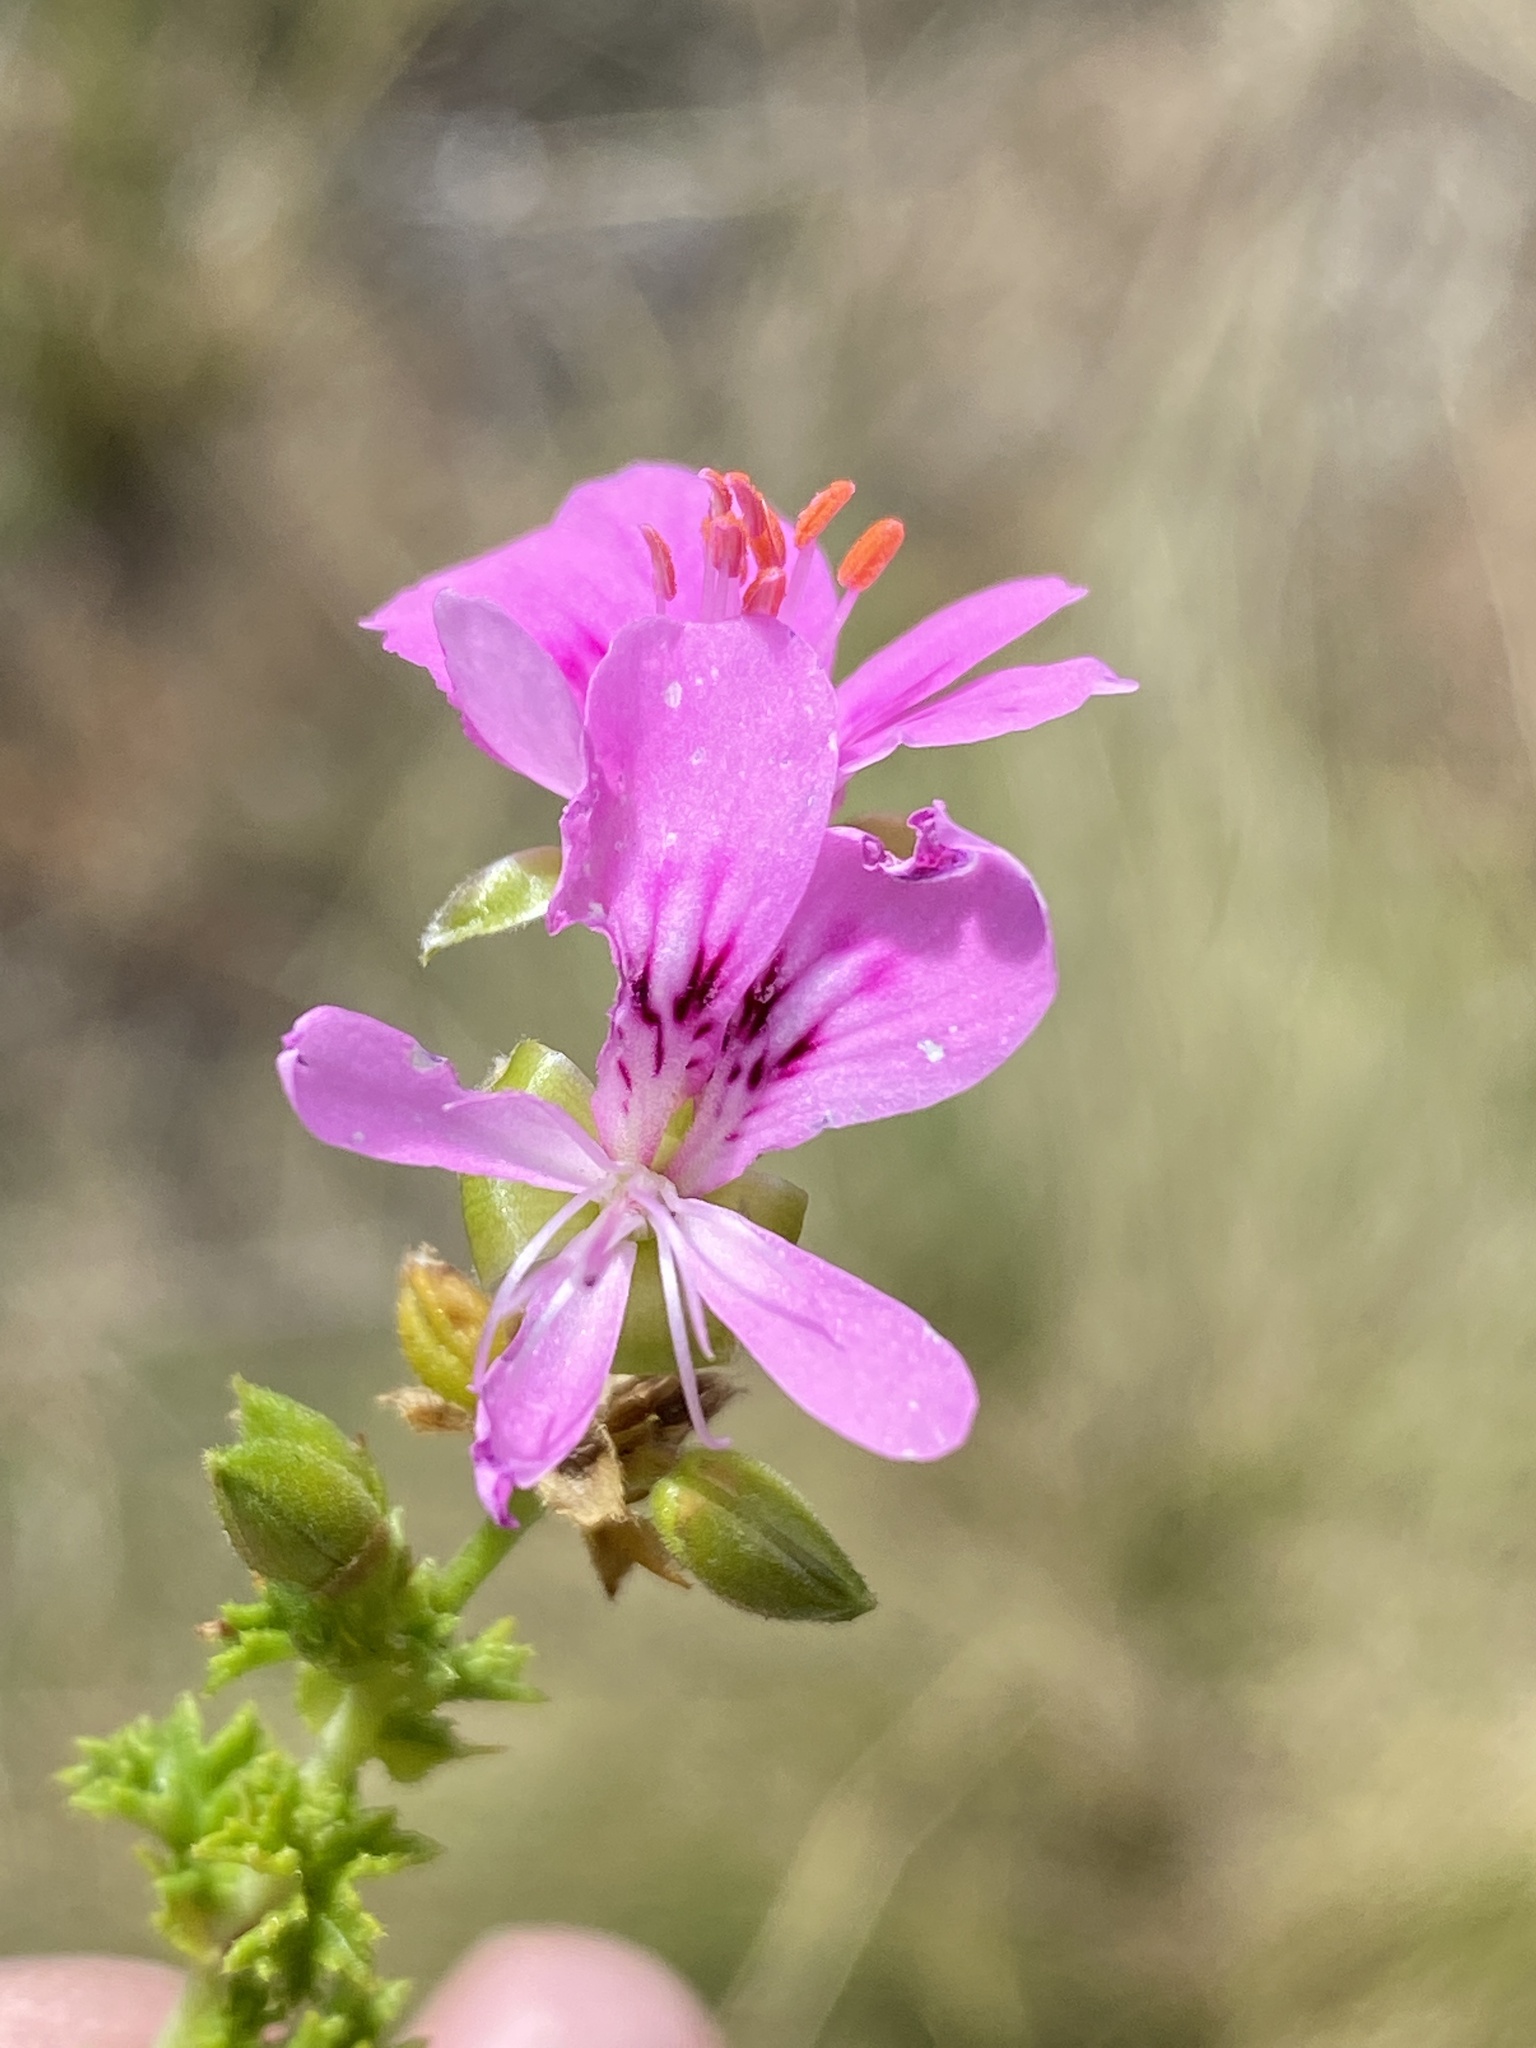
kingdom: Plantae
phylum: Tracheophyta
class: Magnoliopsida
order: Geraniales
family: Geraniaceae
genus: Pelargonium
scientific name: Pelargonium englerianum
